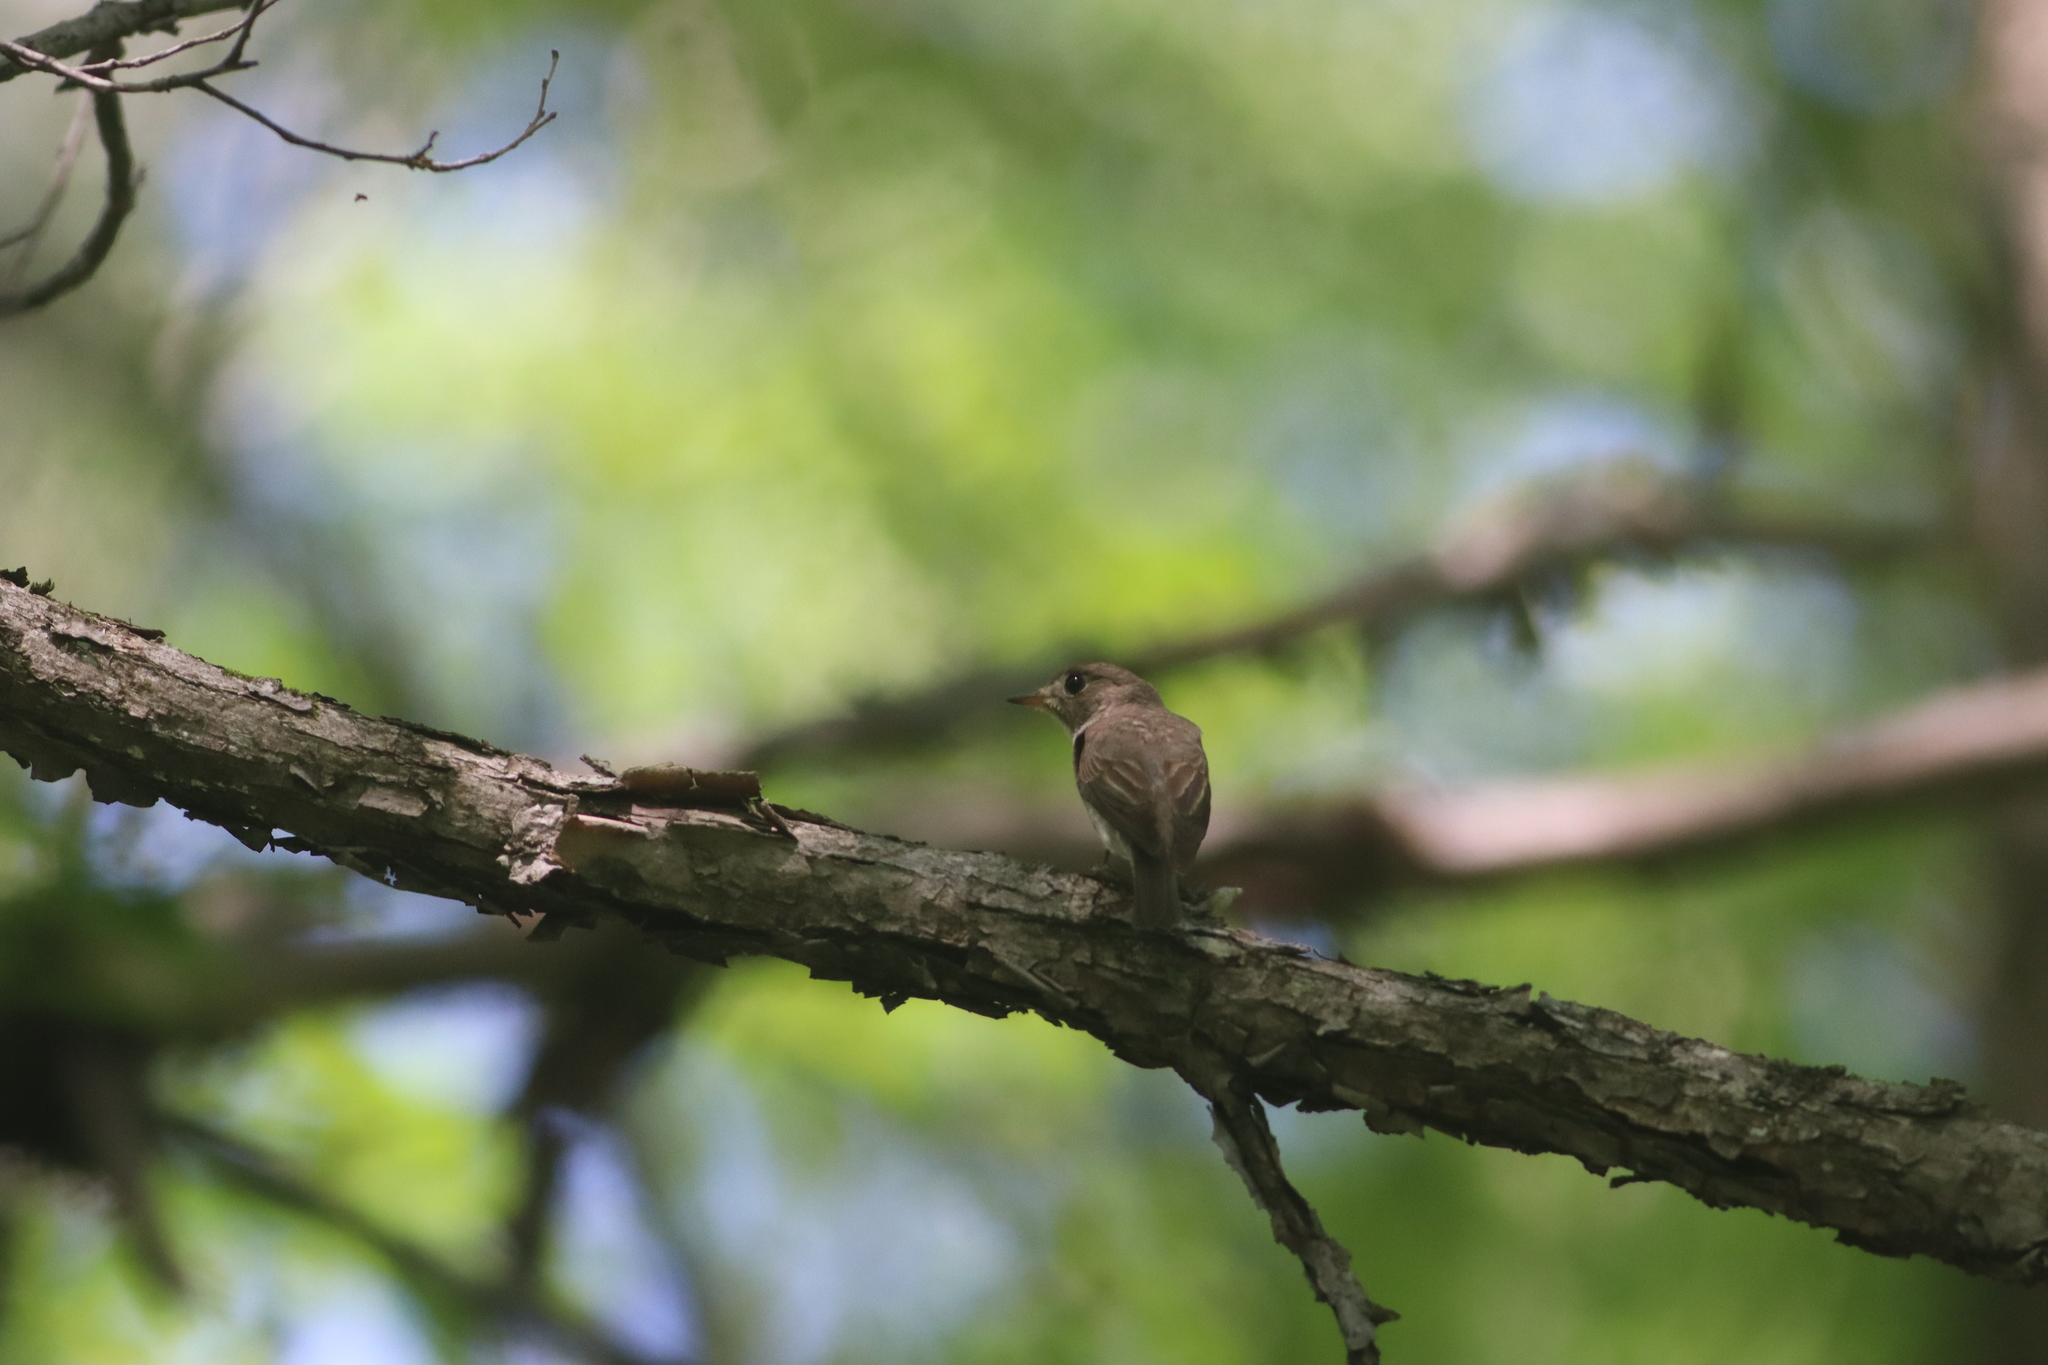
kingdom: Animalia
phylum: Chordata
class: Aves
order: Passeriformes
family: Muscicapidae
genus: Muscicapa
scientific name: Muscicapa latirostris
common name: Asian brown flycatcher
